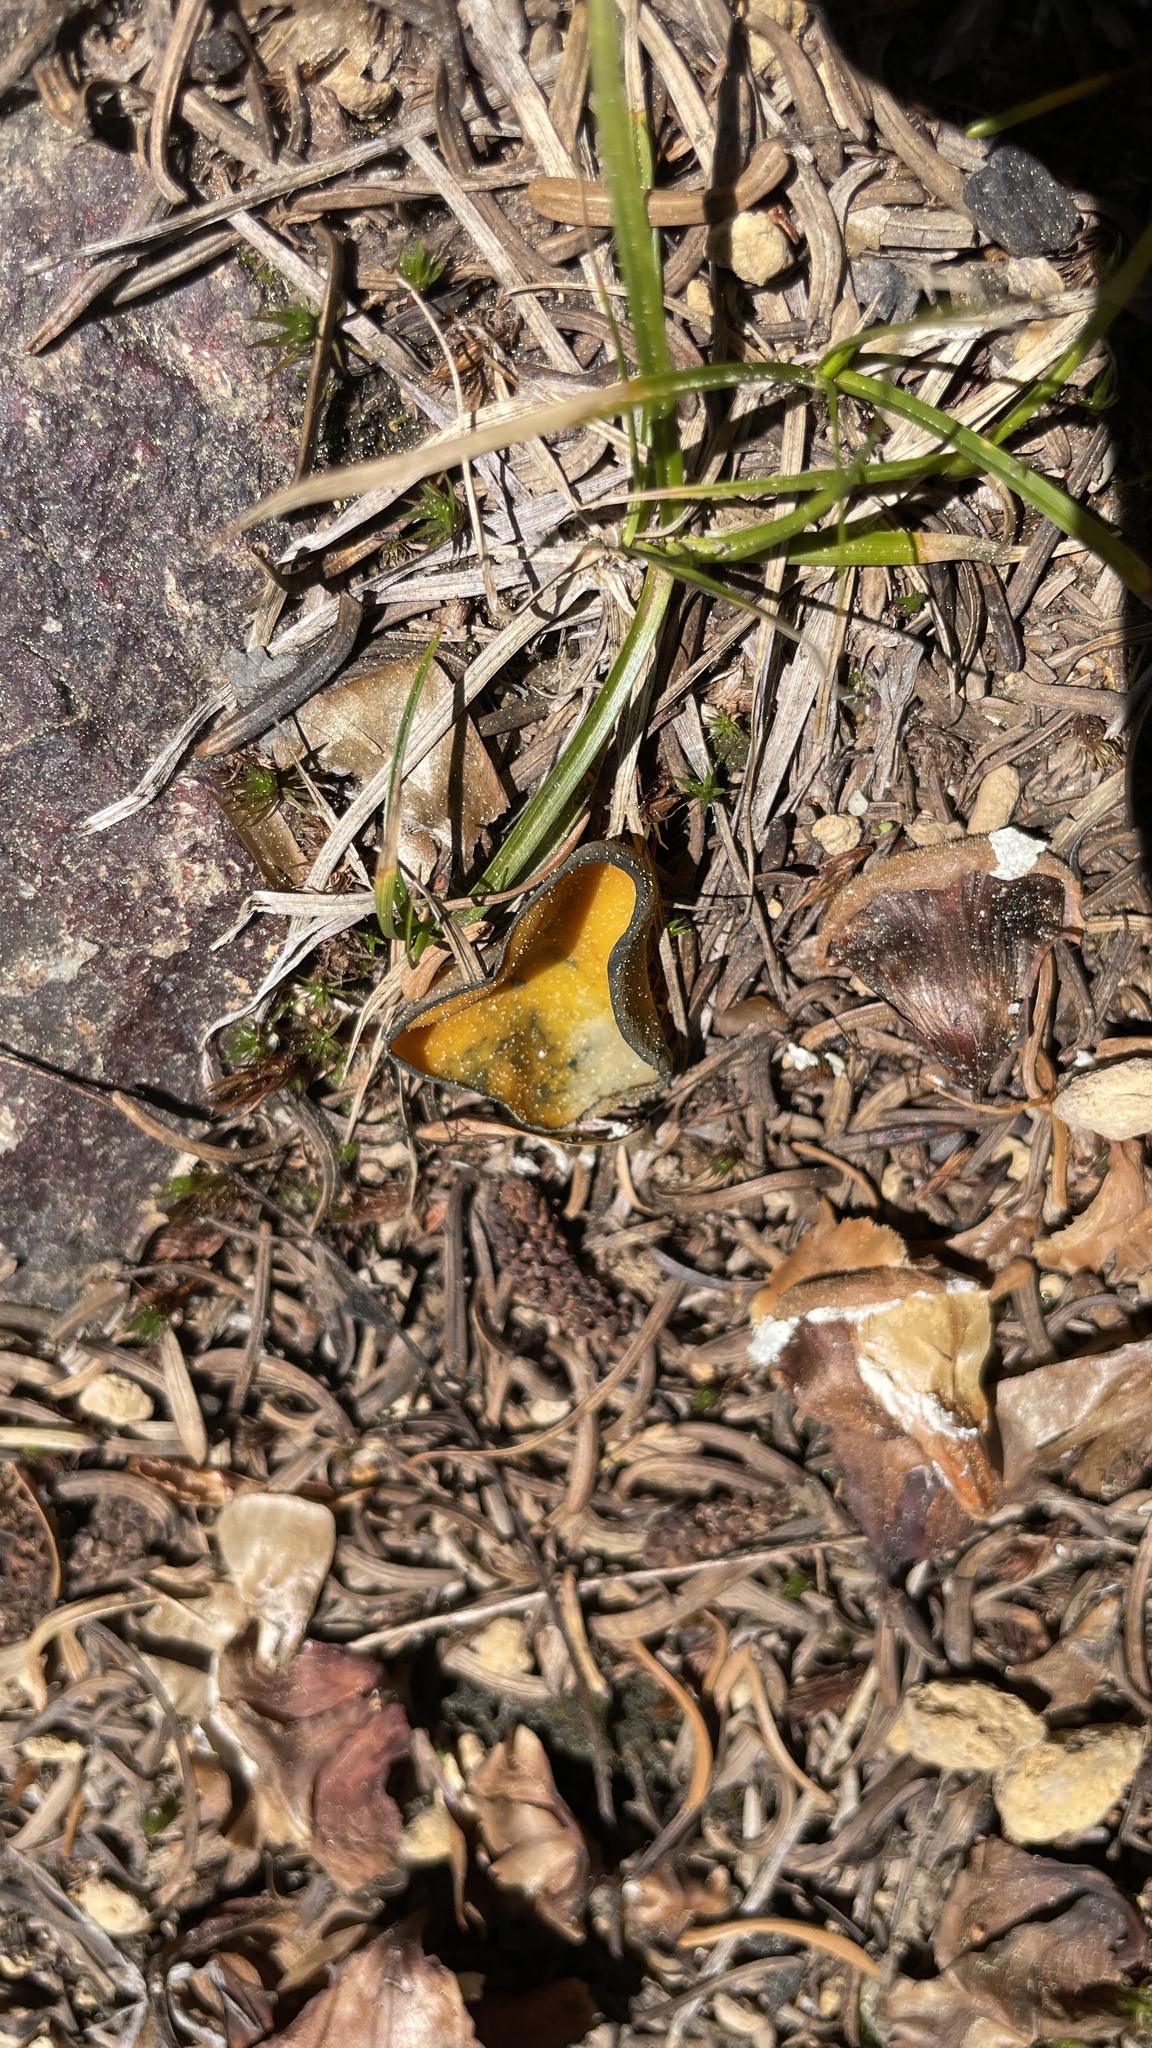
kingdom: Fungi
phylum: Ascomycota
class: Pezizomycetes
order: Pezizales
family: Caloscyphaceae
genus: Caloscypha
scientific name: Caloscypha fulgens
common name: Golden cup
